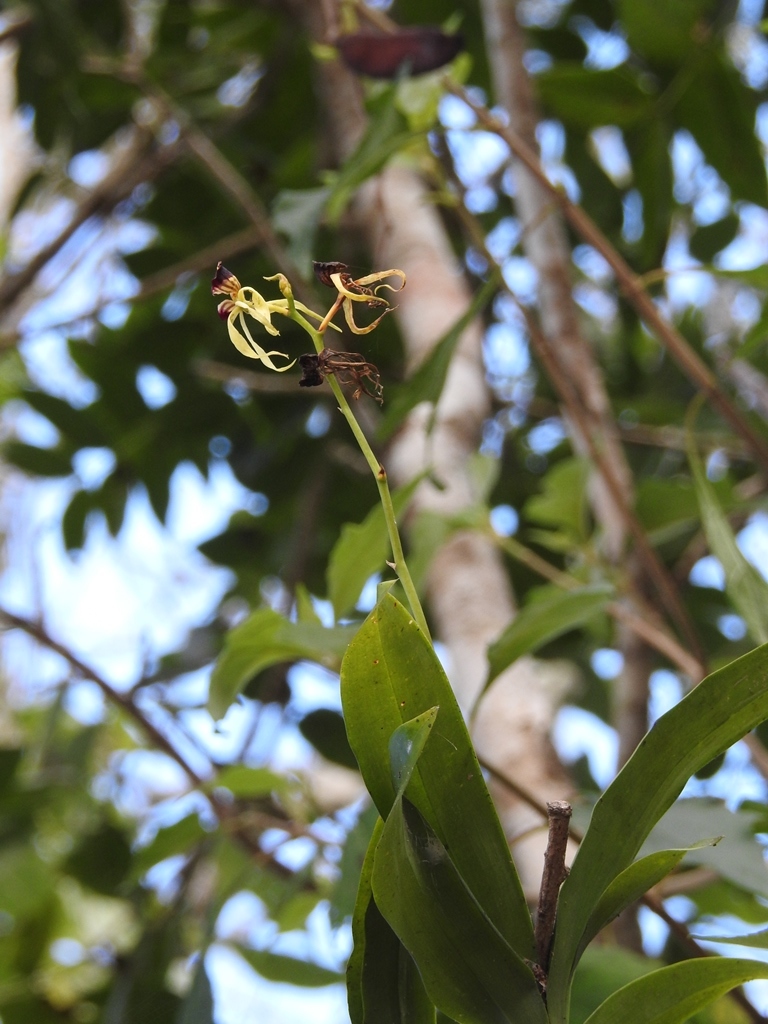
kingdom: Plantae
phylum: Tracheophyta
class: Liliopsida
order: Asparagales
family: Orchidaceae
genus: Prosthechea
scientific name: Prosthechea cochleata
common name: Clamshell orchid
